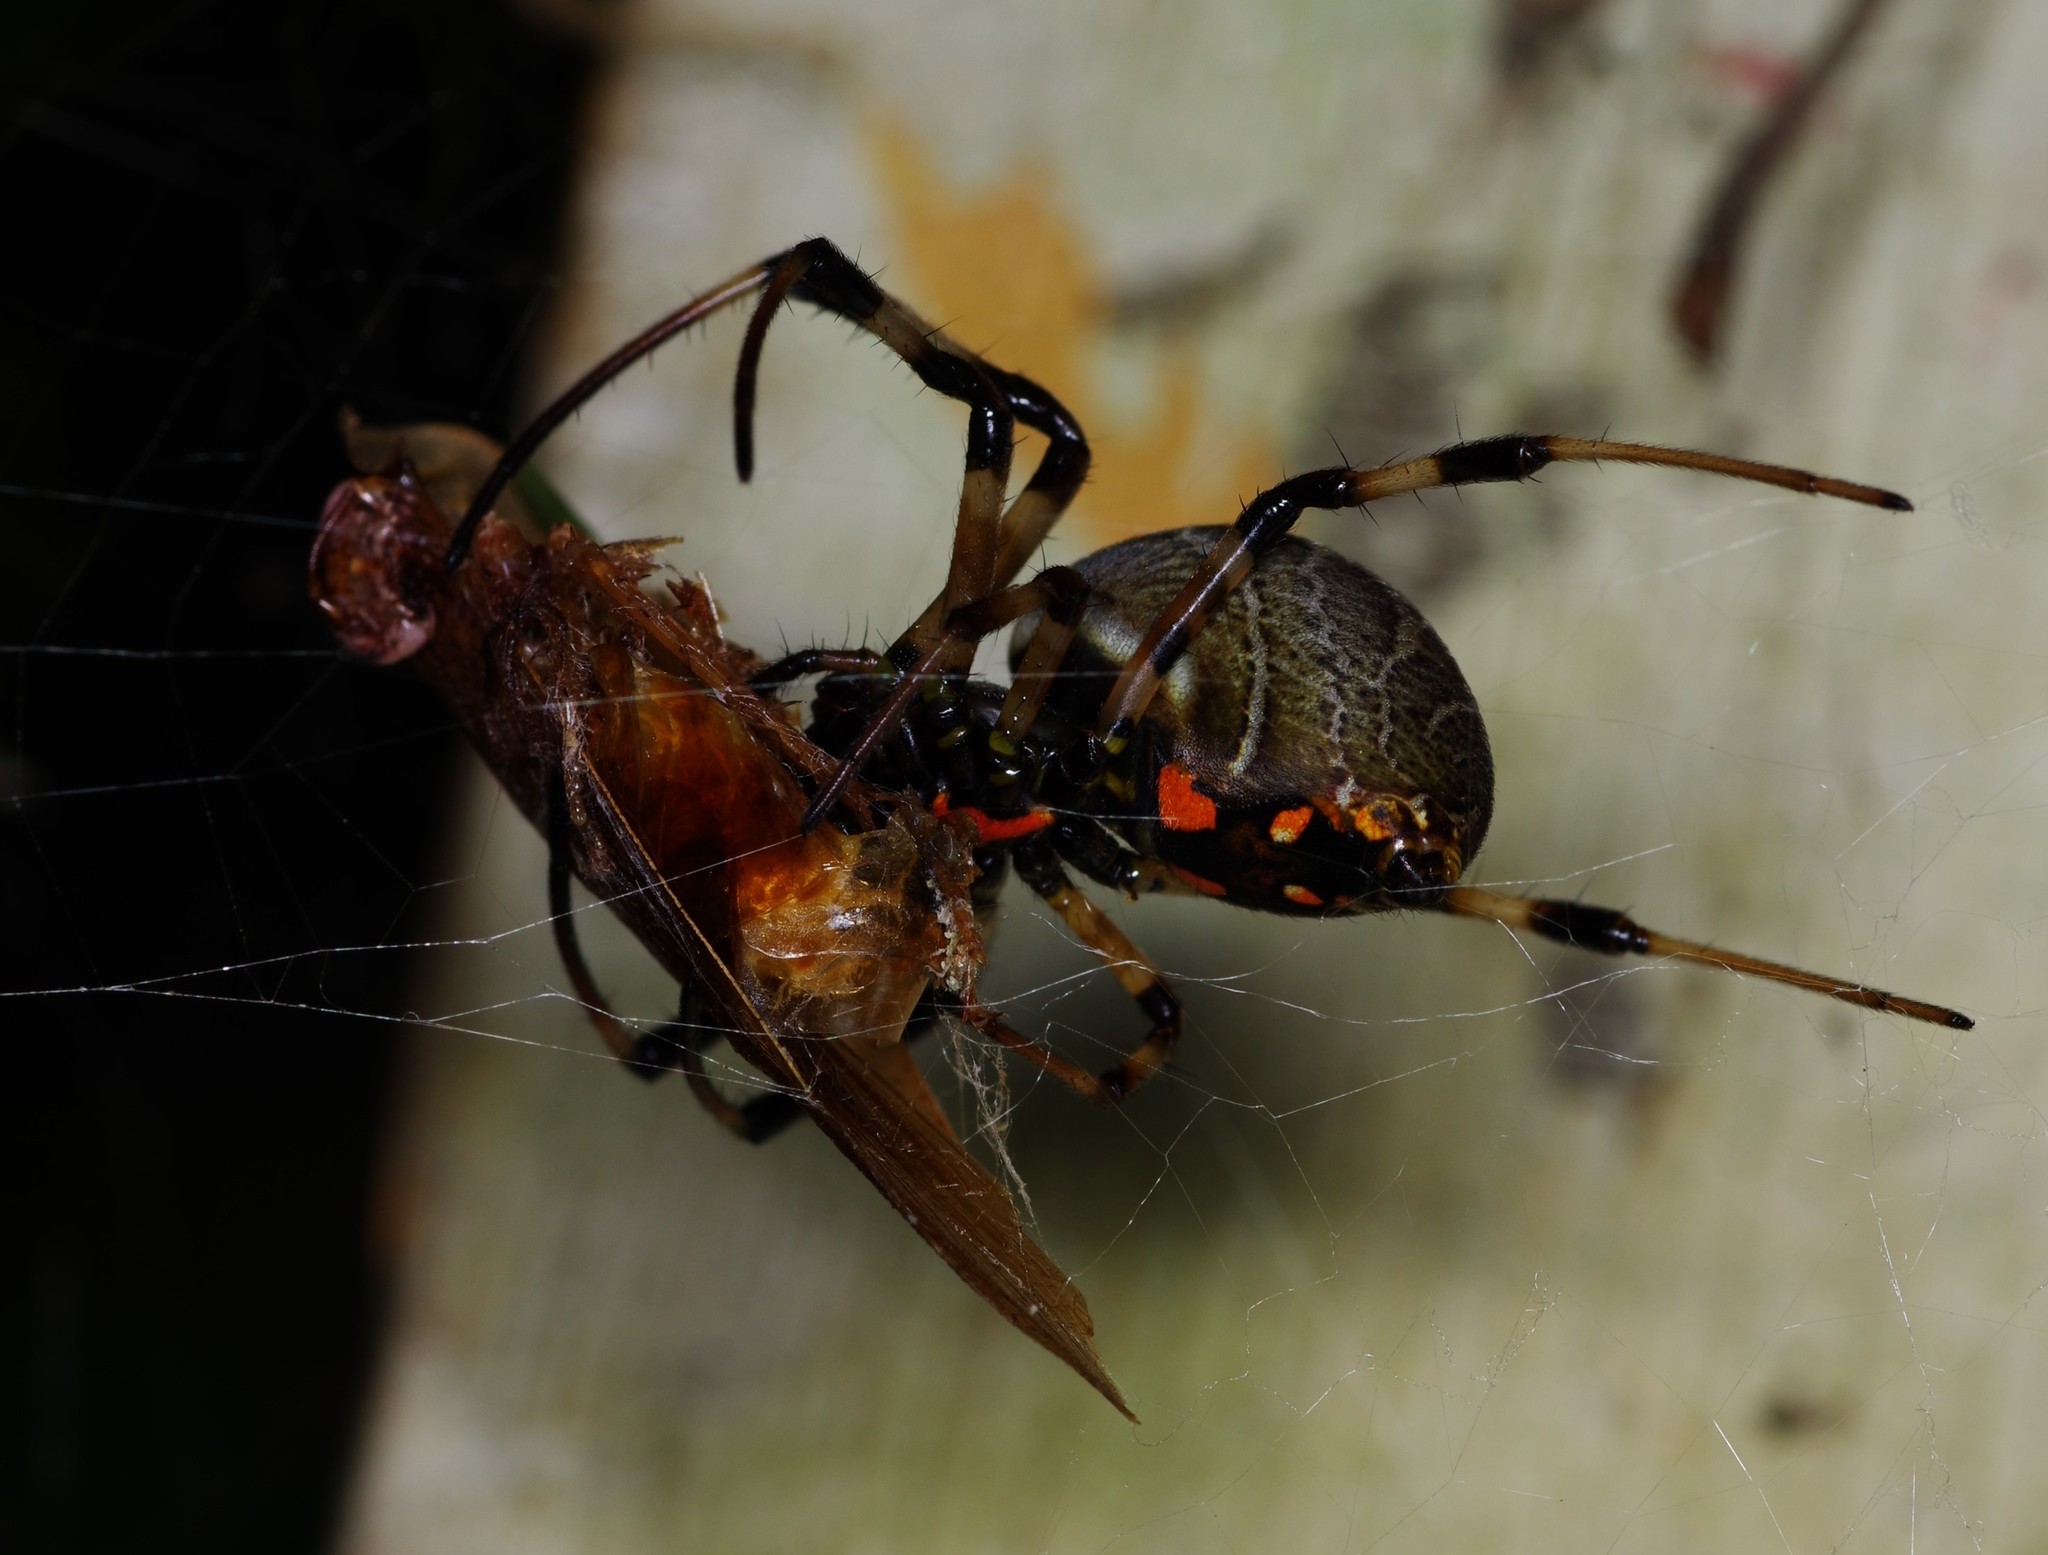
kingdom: Animalia
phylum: Arthropoda
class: Arachnida
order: Araneae
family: Araneidae
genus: Nephilengys
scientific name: Nephilengys malabarensis
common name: Asian hermit spider
